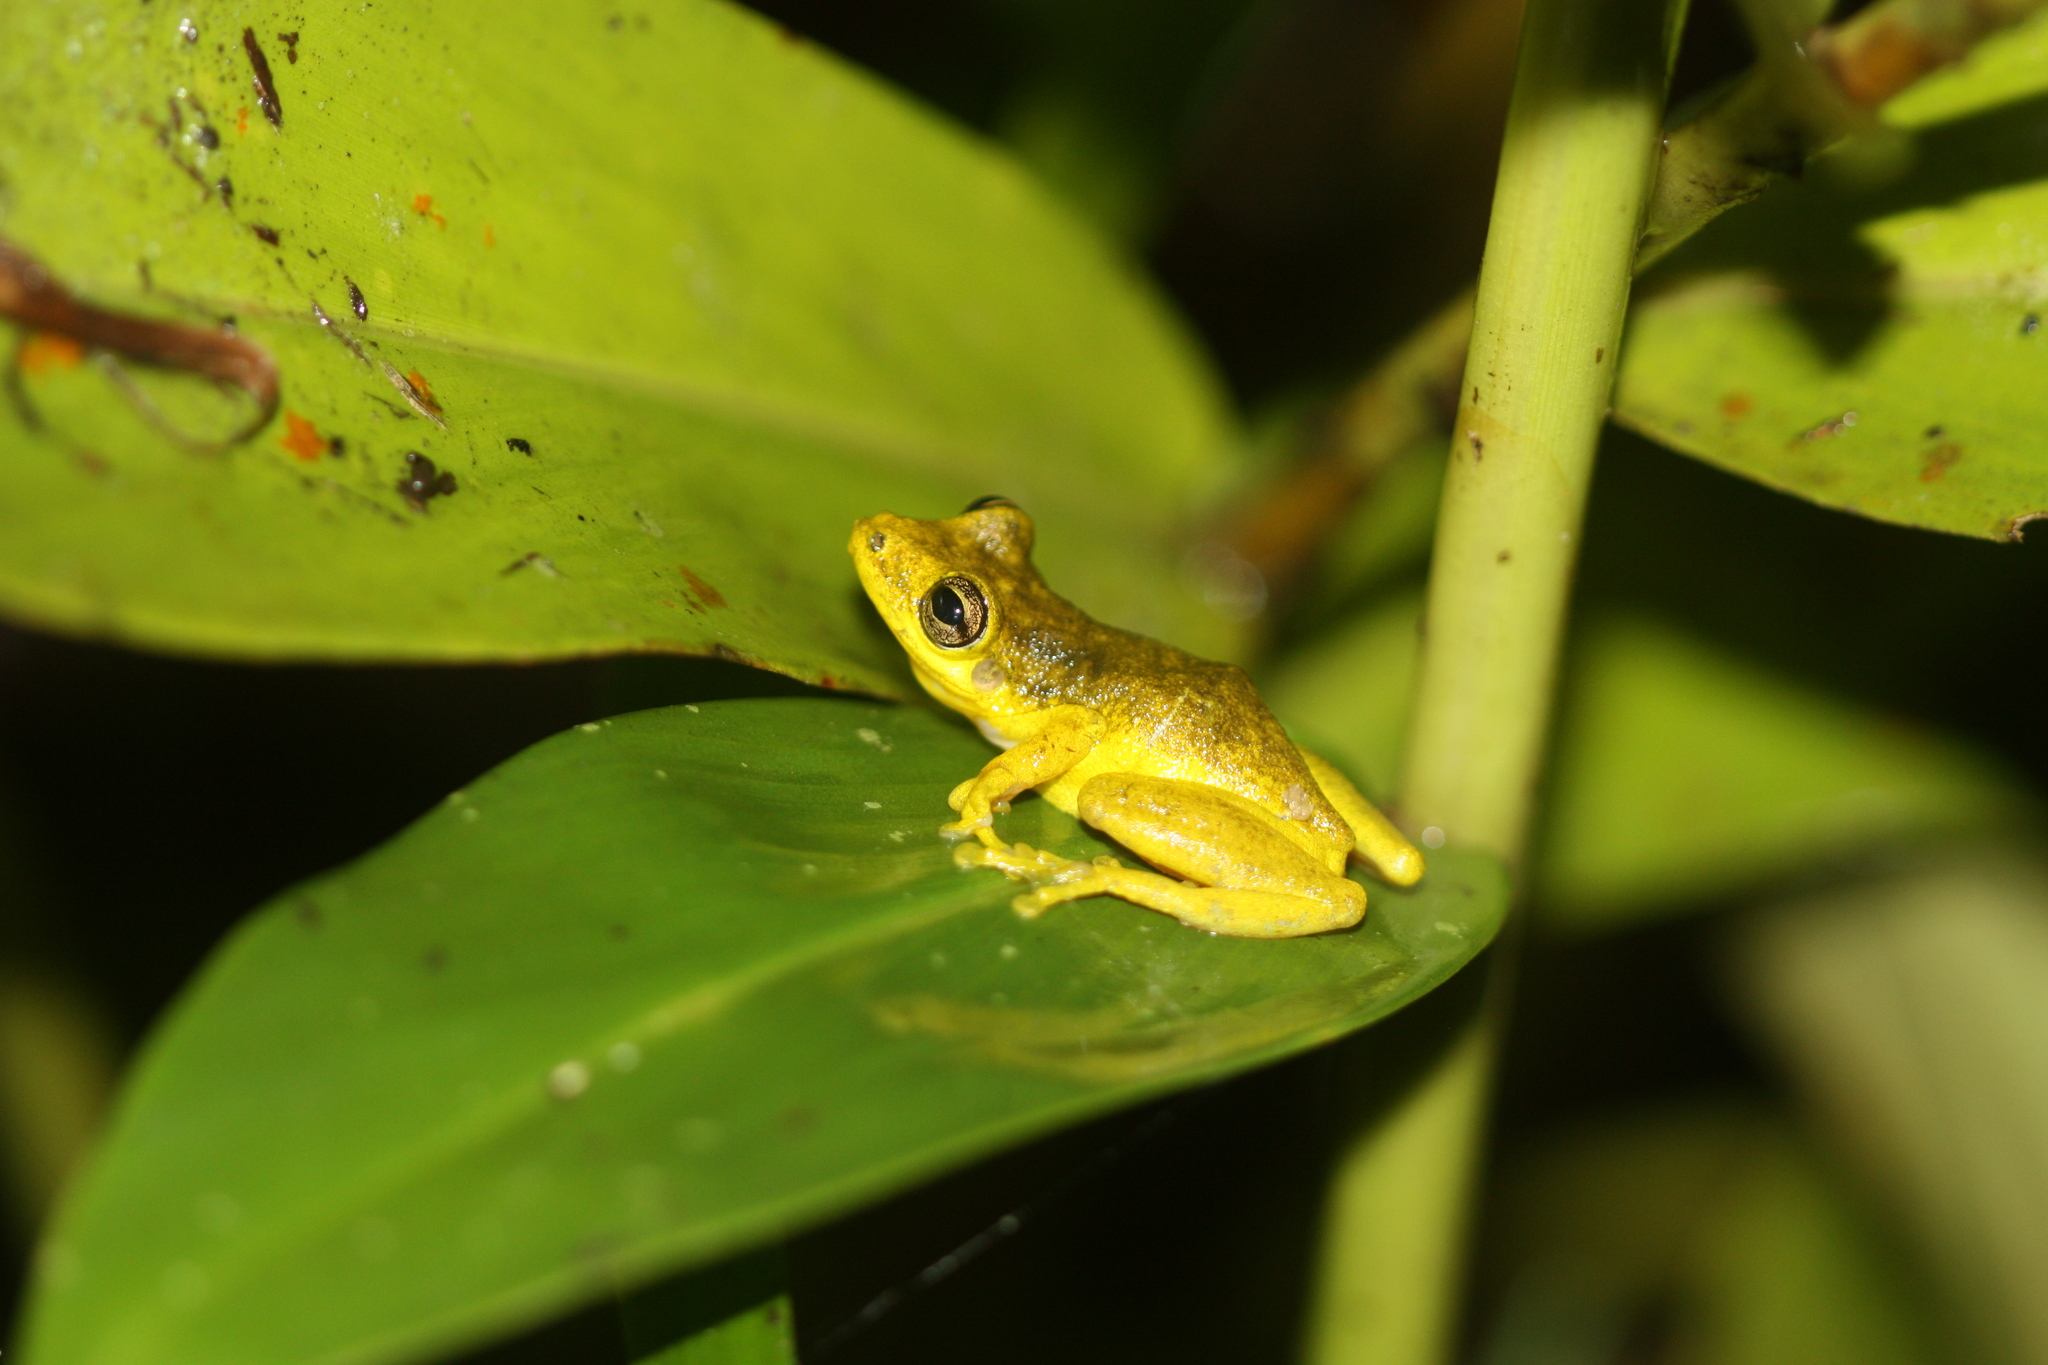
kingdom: Animalia
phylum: Chordata
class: Amphibia
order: Anura
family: Hylidae
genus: Scinax
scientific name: Scinax ruber
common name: Red snouted treefrog
